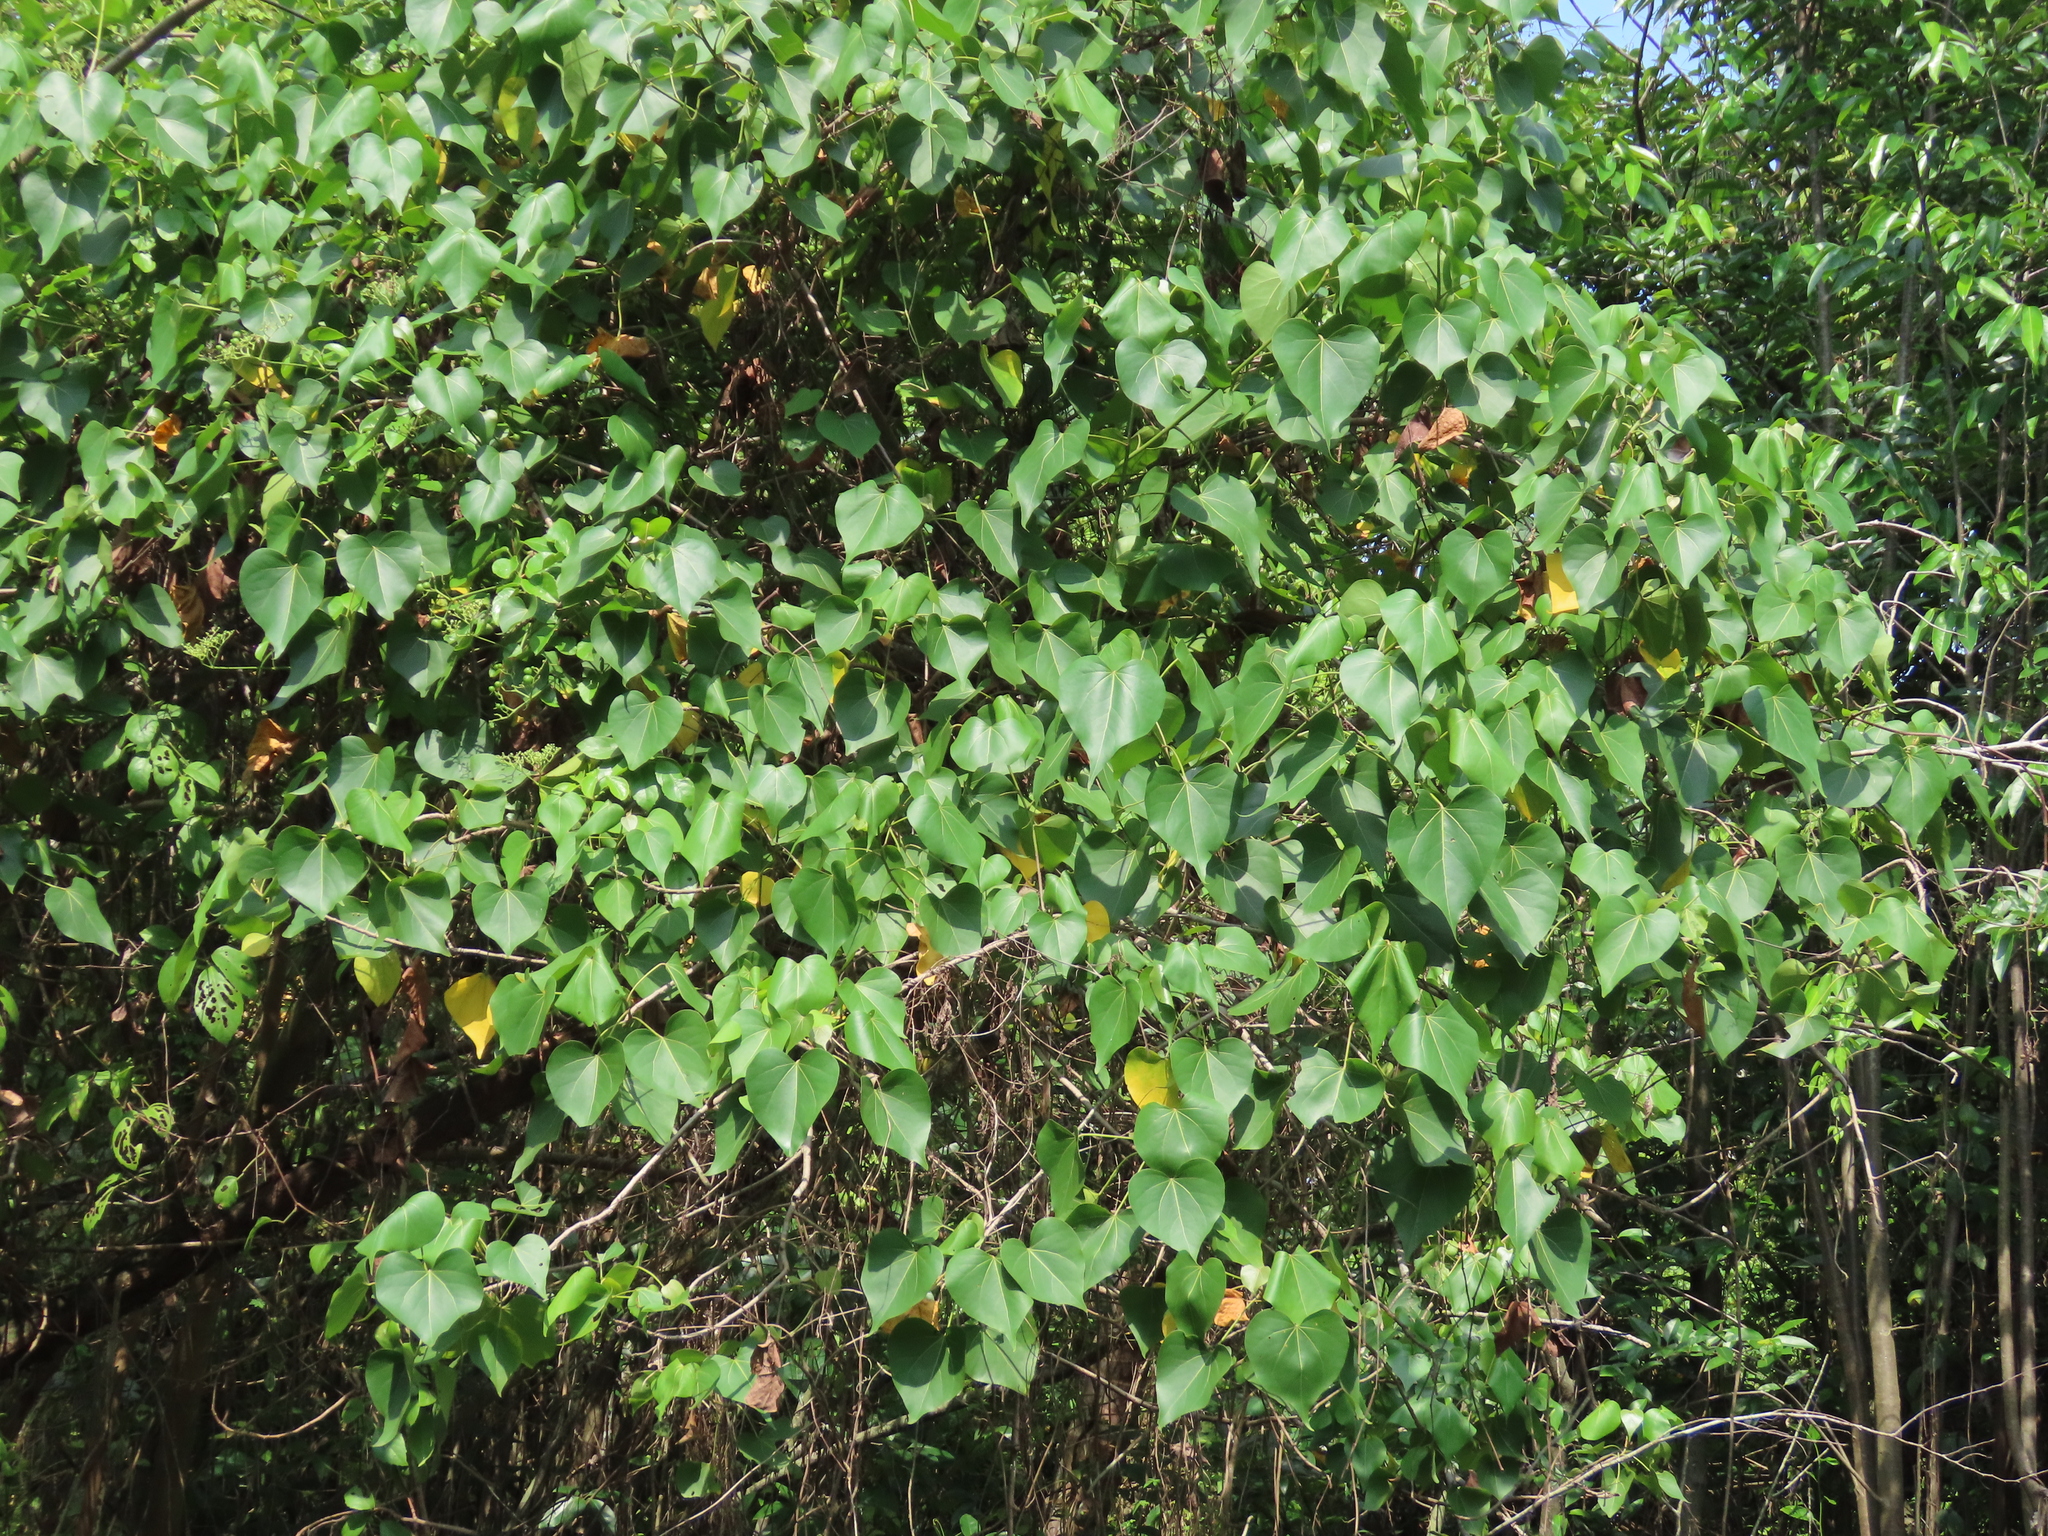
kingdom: Plantae
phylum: Tracheophyta
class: Magnoliopsida
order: Malvales
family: Malvaceae
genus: Thespesia
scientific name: Thespesia populnea
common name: Seaside mahoe
